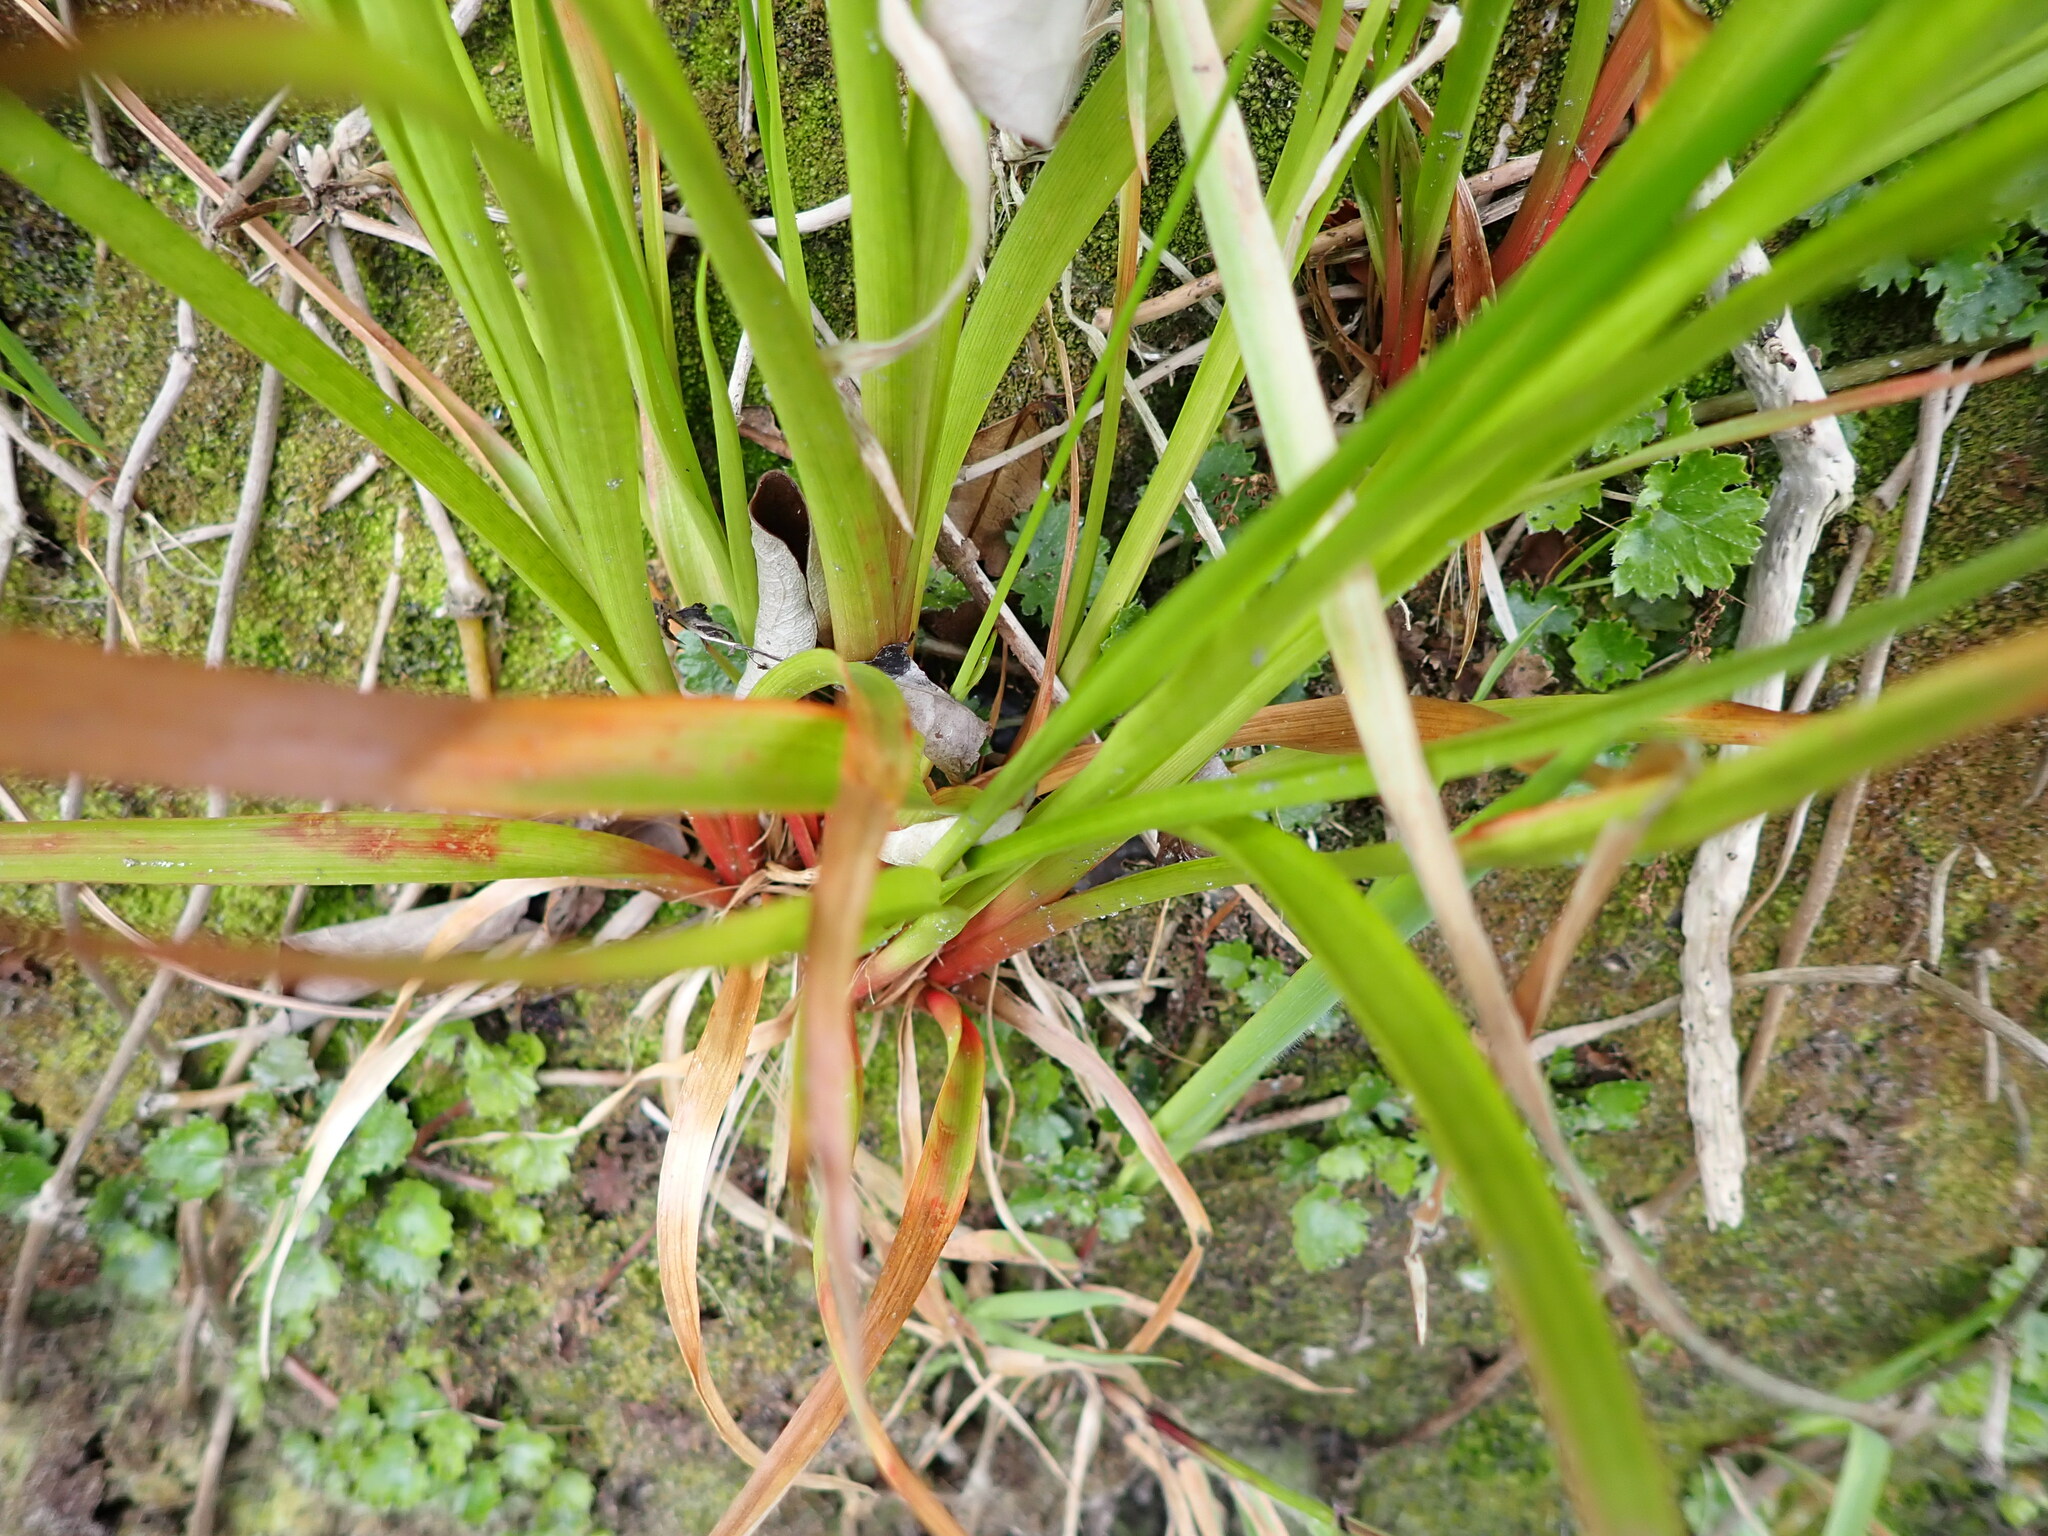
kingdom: Plantae
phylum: Tracheophyta
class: Liliopsida
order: Poales
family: Juncaceae
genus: Juncus
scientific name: Juncus planifolius
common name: Broadleaf rush
